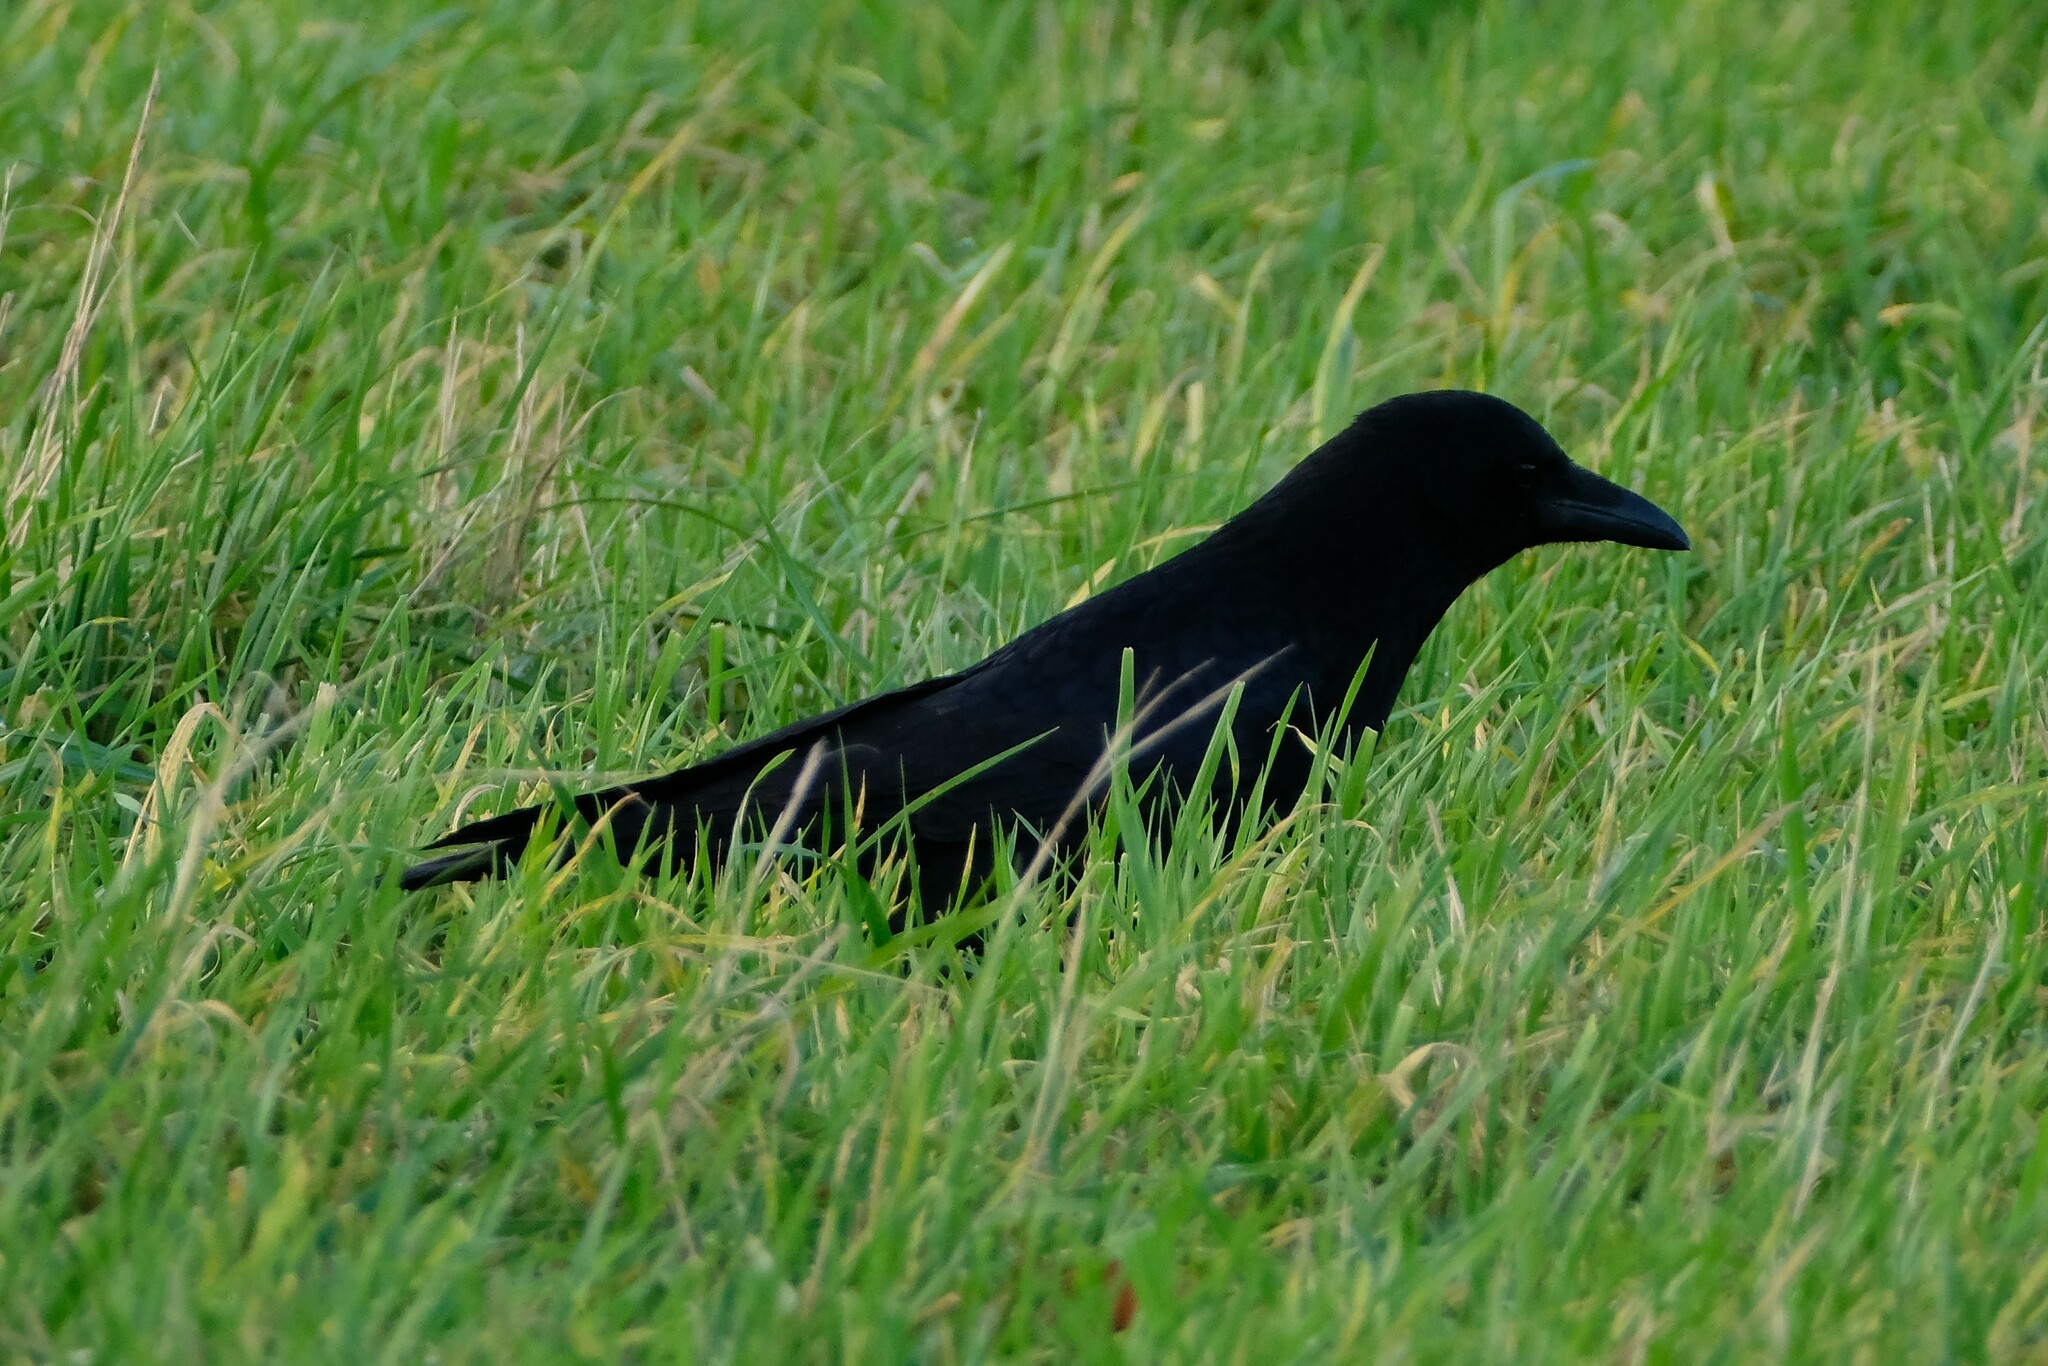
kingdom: Animalia
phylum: Chordata
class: Aves
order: Passeriformes
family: Corvidae
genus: Corvus
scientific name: Corvus corone
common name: Carrion crow
